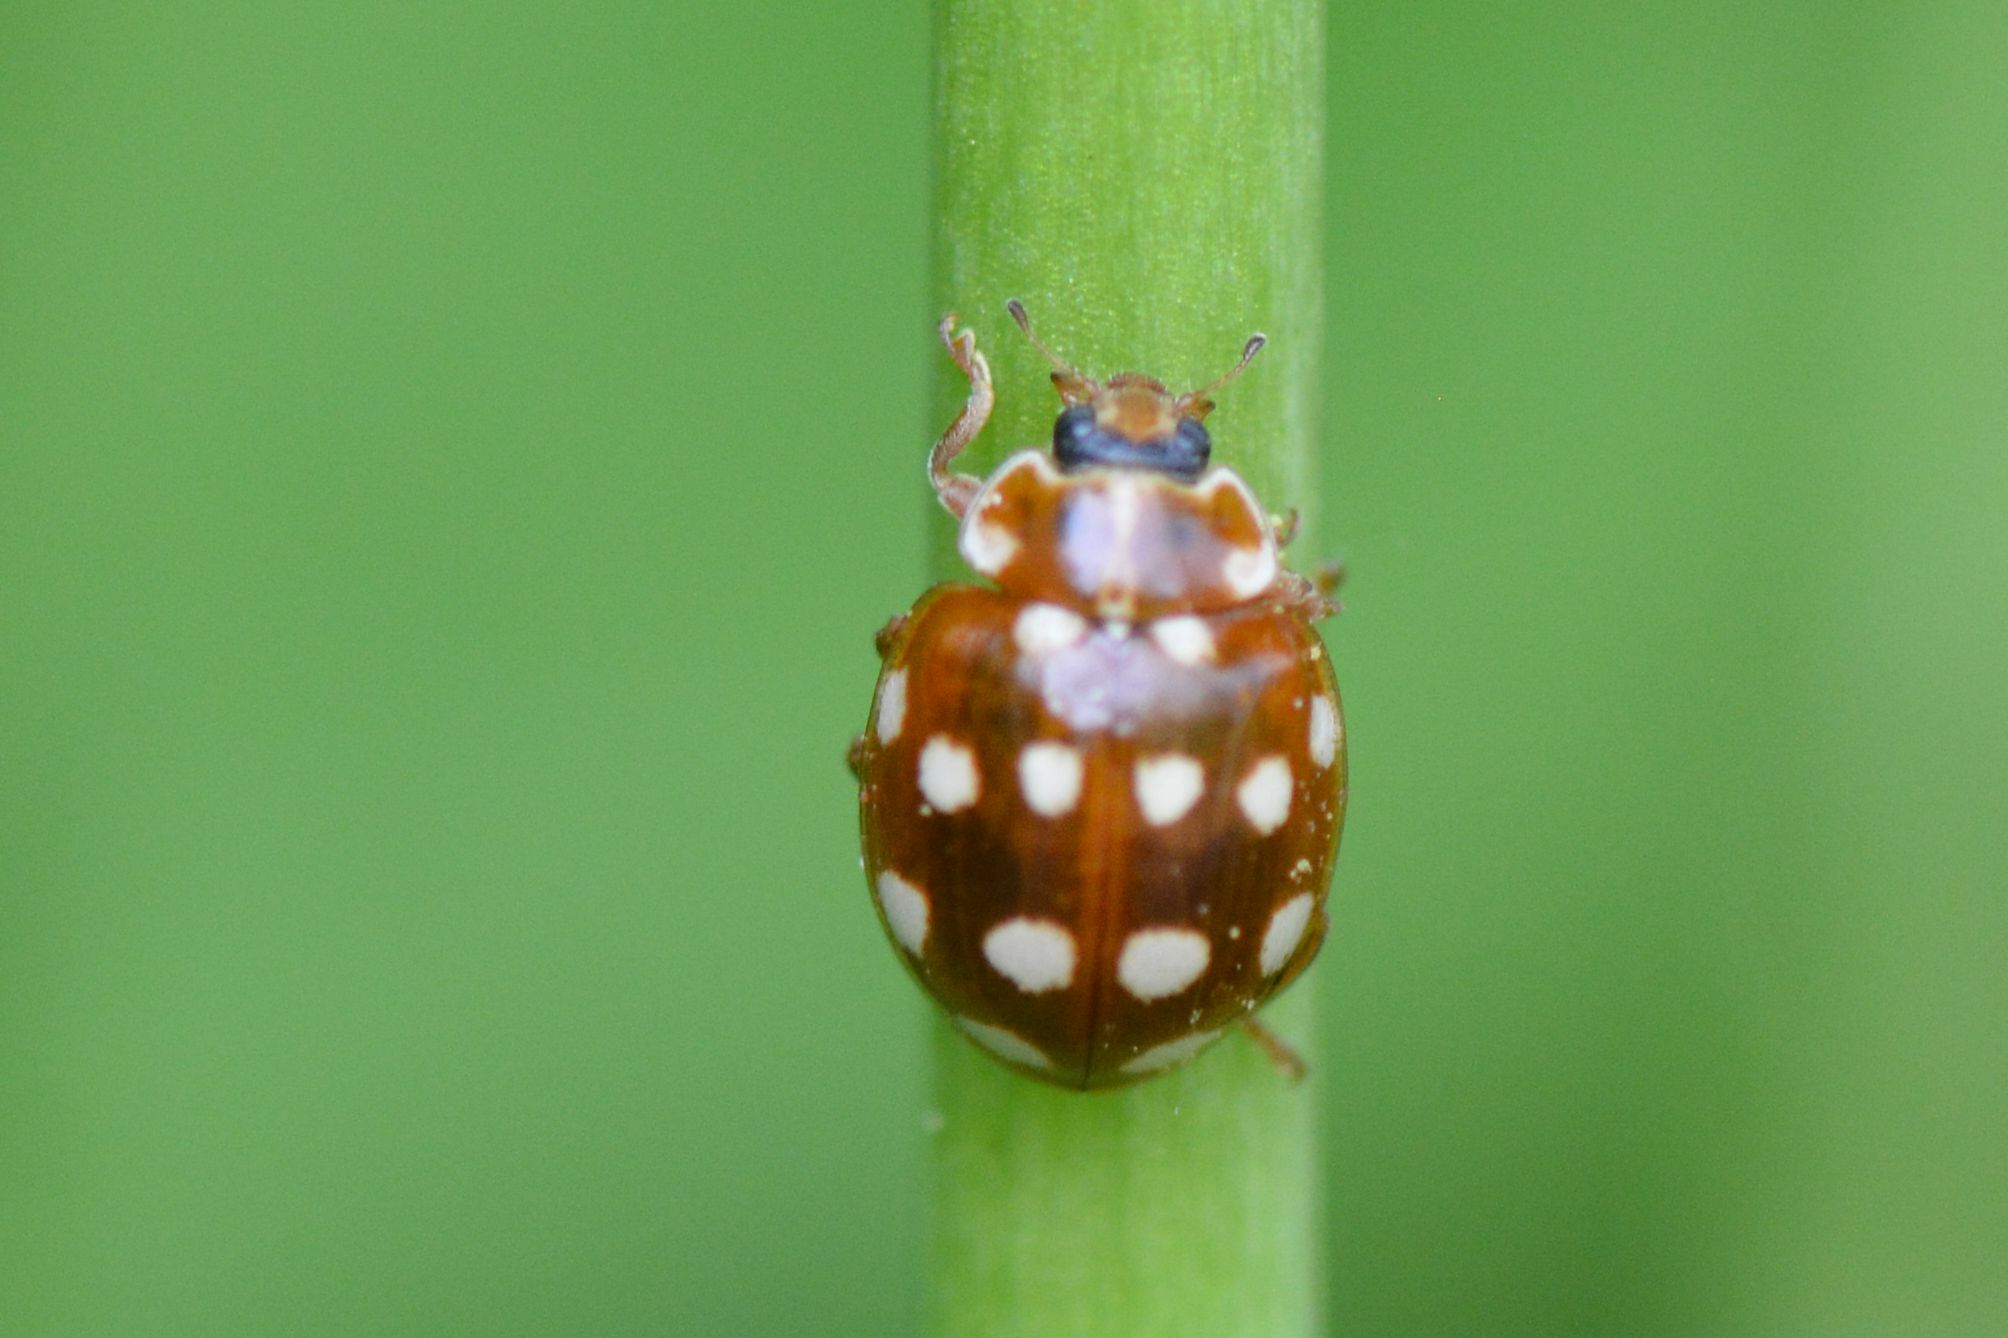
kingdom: Animalia
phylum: Arthropoda
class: Insecta
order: Coleoptera
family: Coccinellidae
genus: Calvia
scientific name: Calvia quatuordecimguttata
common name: Cream-spot ladybird
